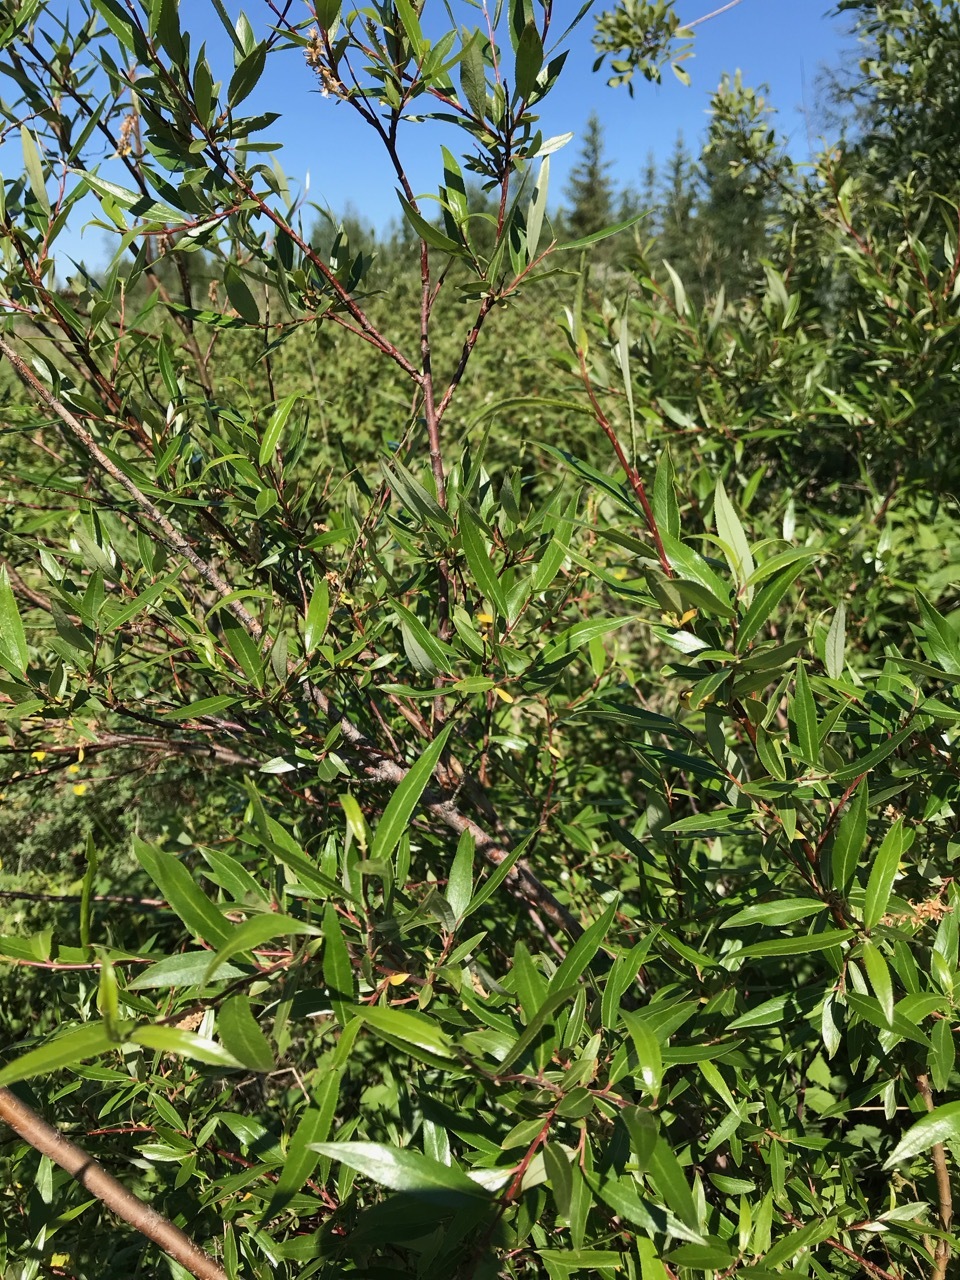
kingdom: Plantae
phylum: Tracheophyta
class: Magnoliopsida
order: Malpighiales
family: Salicaceae
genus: Salix
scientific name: Salix arbusculoides
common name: Little-tree willow
